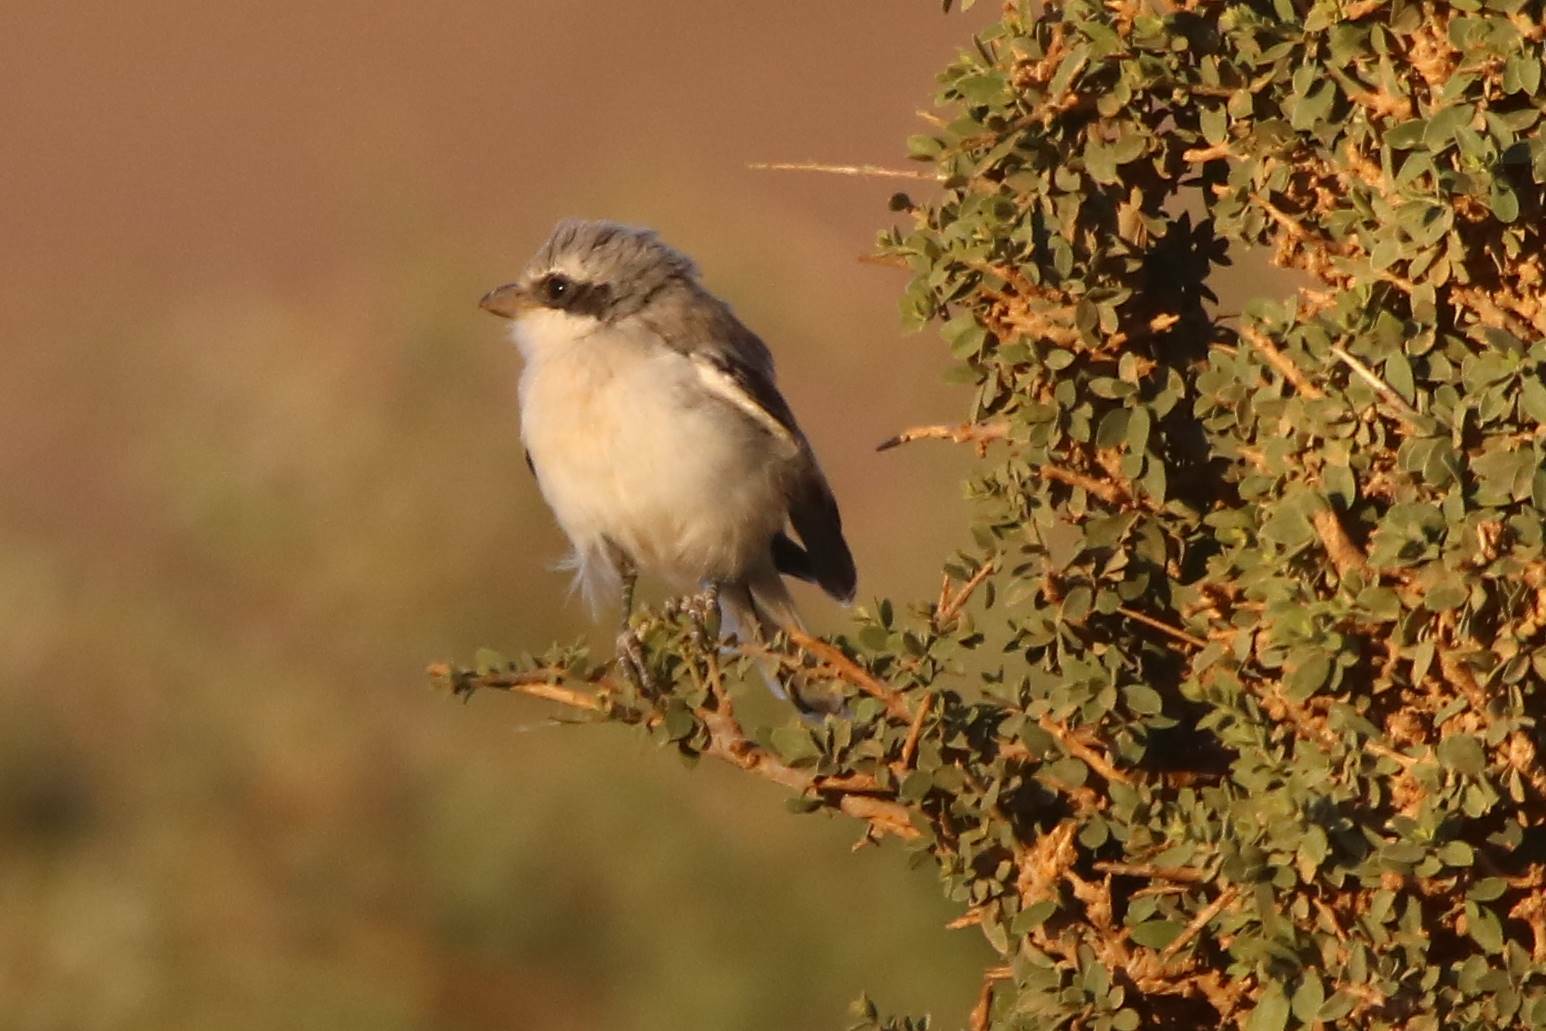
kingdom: Animalia
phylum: Chordata
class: Aves
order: Passeriformes
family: Laniidae
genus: Lanius
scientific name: Lanius excubitor
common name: Great grey shrike
